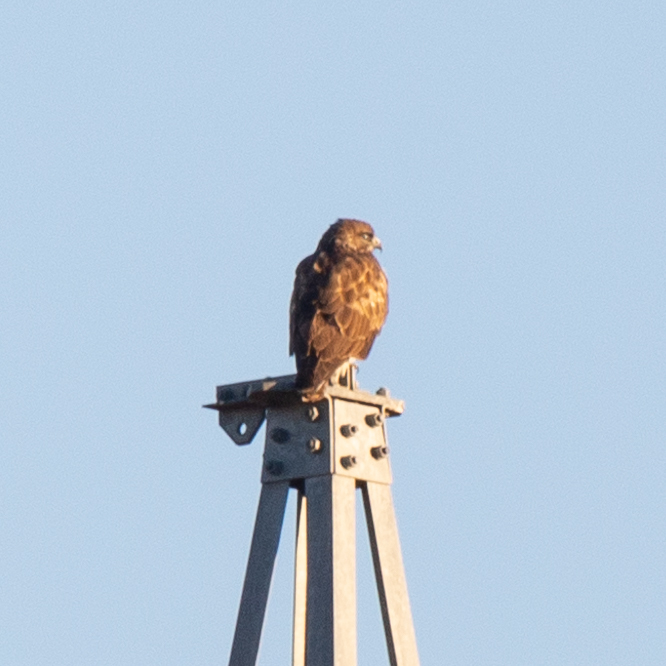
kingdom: Animalia
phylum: Chordata
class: Aves
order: Accipitriformes
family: Accipitridae
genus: Buteo
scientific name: Buteo buteo
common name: Common buzzard
